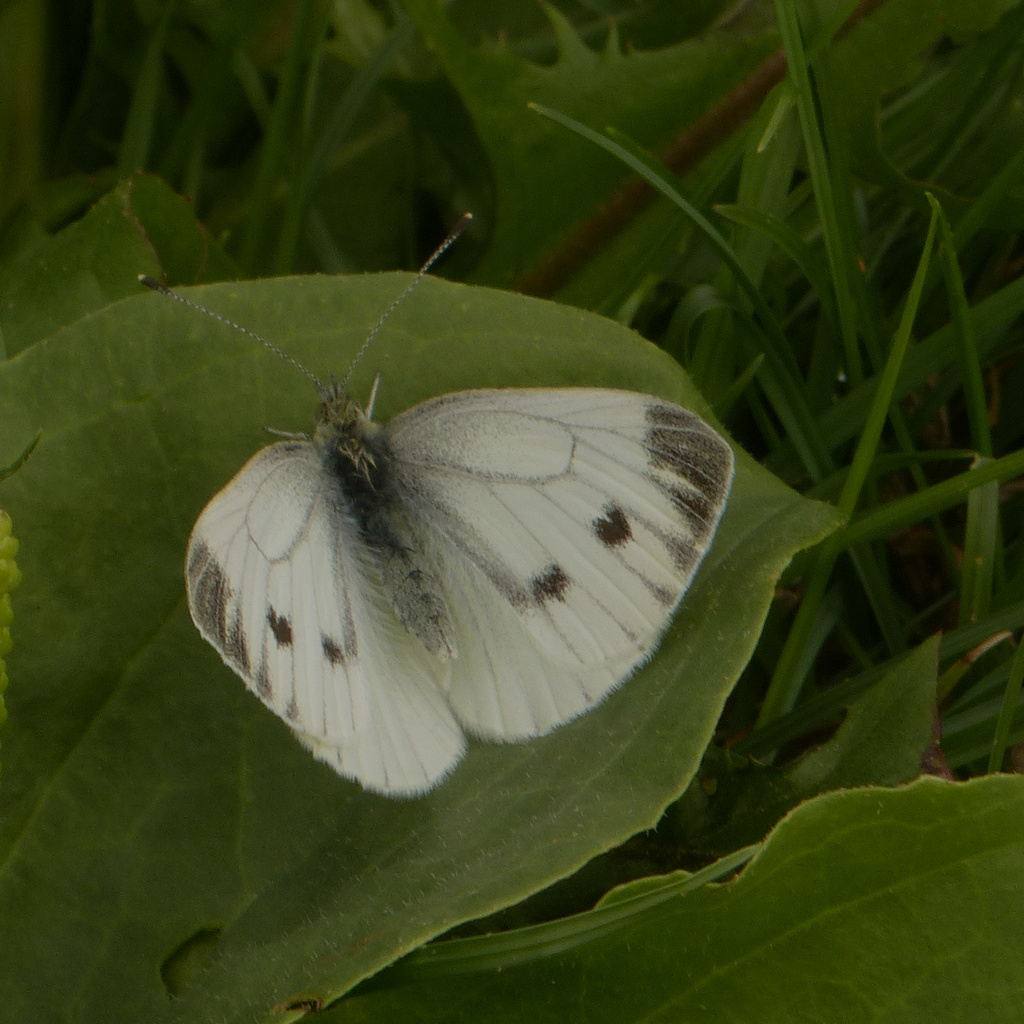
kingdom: Animalia
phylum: Arthropoda
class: Insecta
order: Lepidoptera
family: Pieridae
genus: Pieris
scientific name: Pieris napi
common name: Green-veined white
